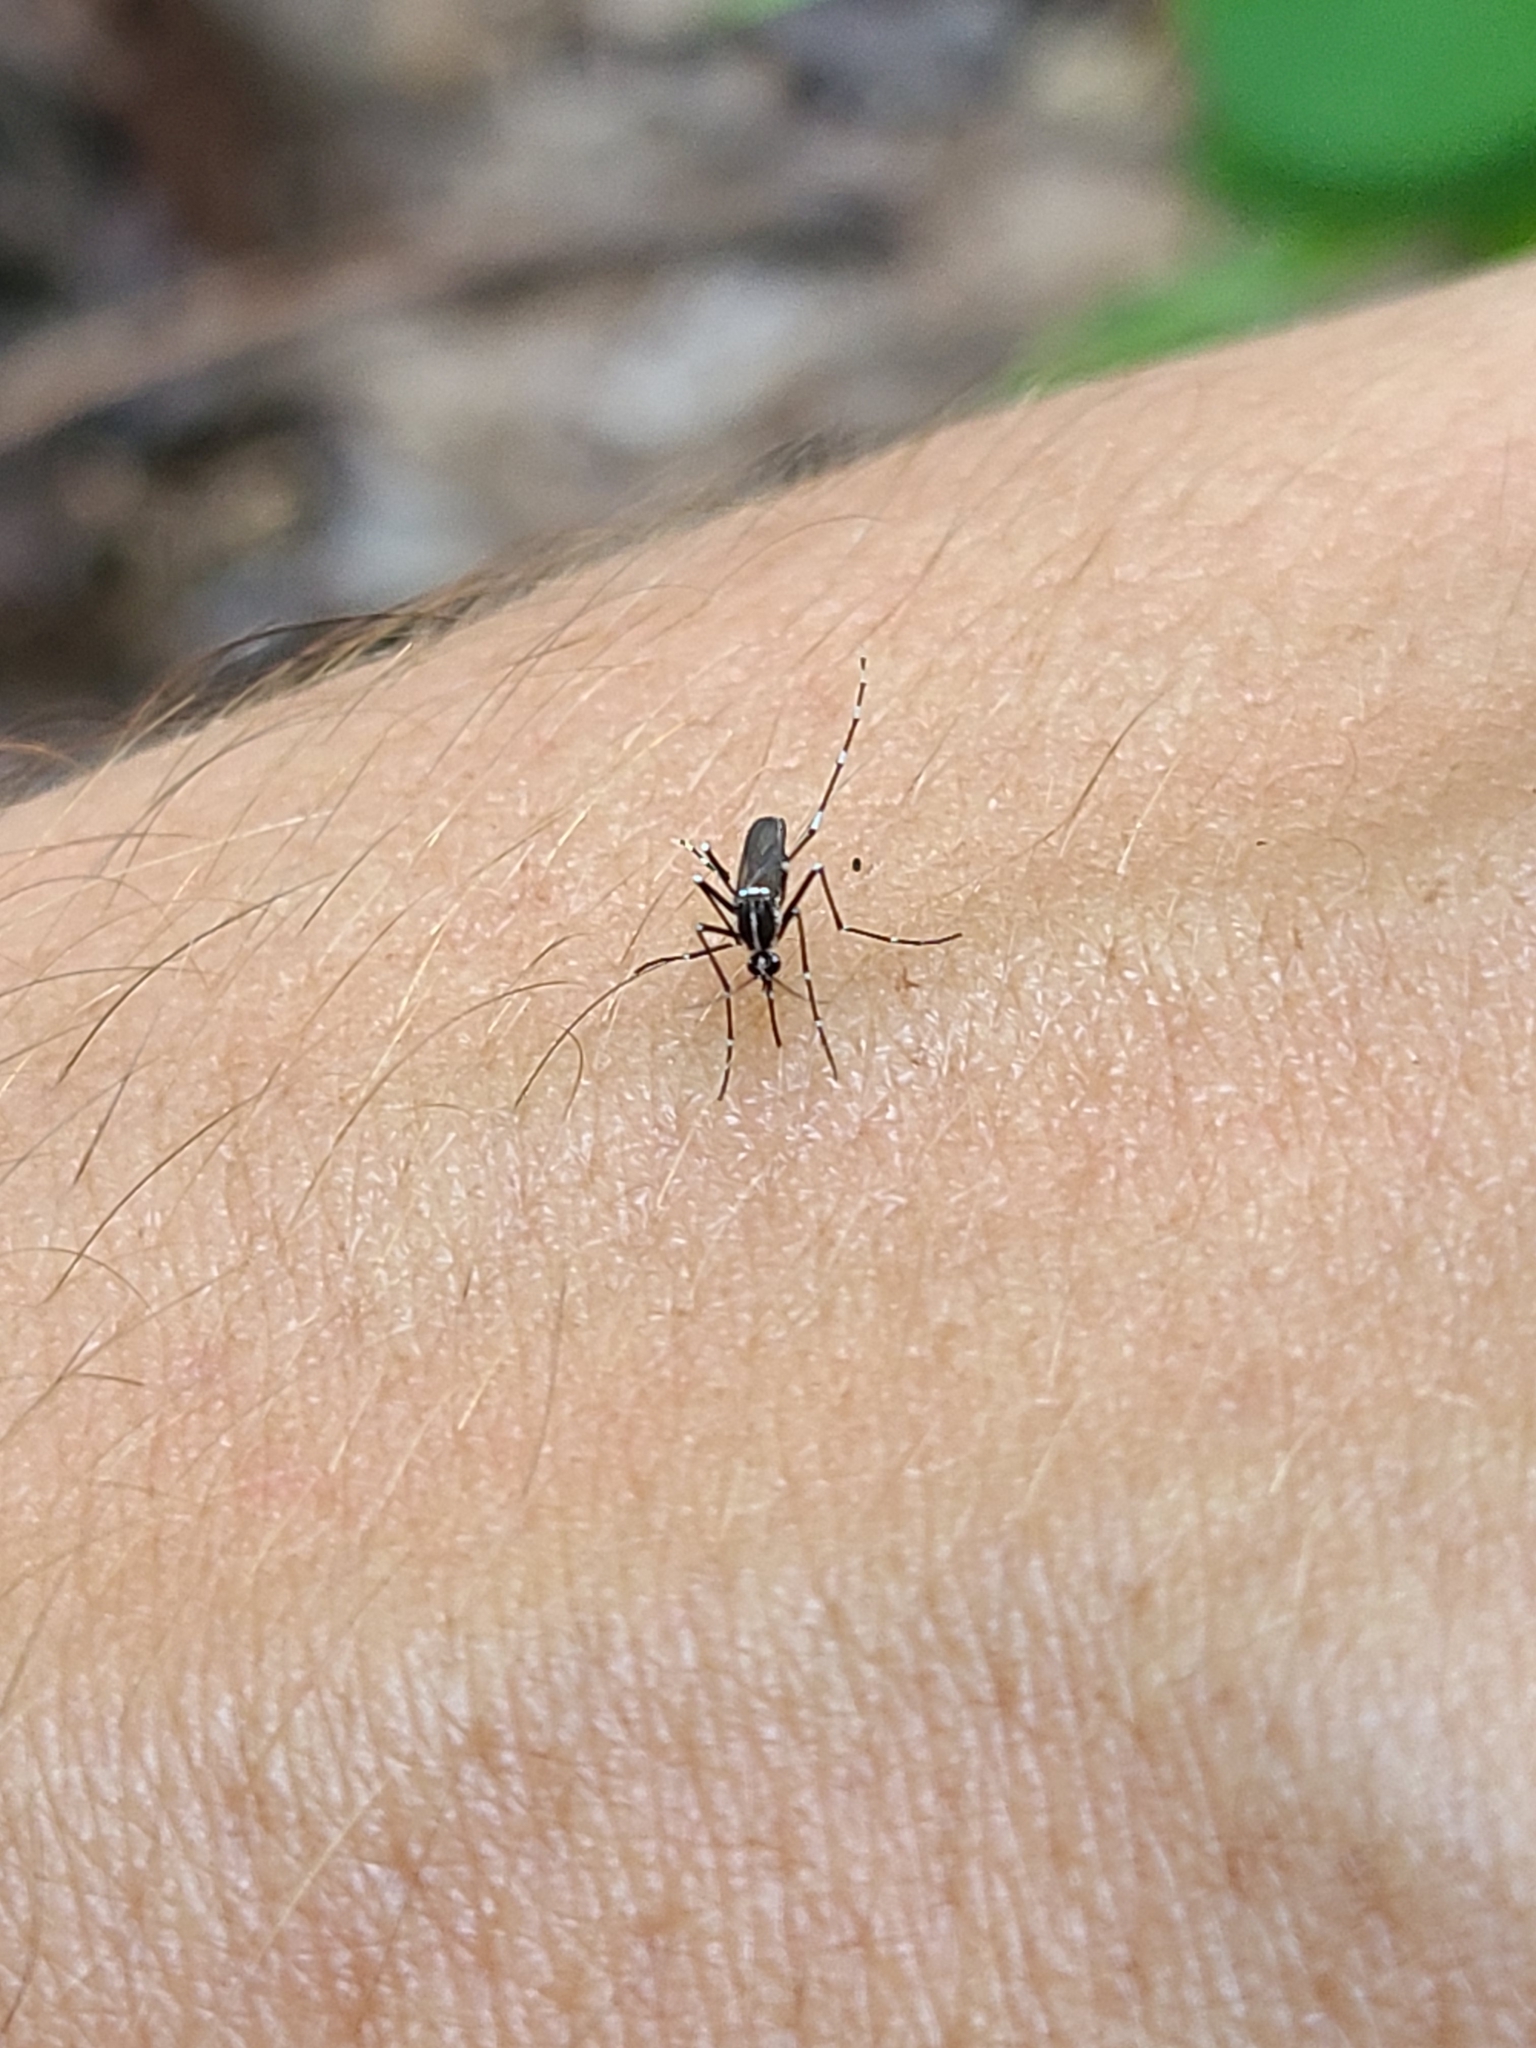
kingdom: Animalia
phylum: Arthropoda
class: Insecta
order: Diptera
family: Culicidae
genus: Aedes
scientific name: Aedes albopictus
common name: Tiger mosquito
